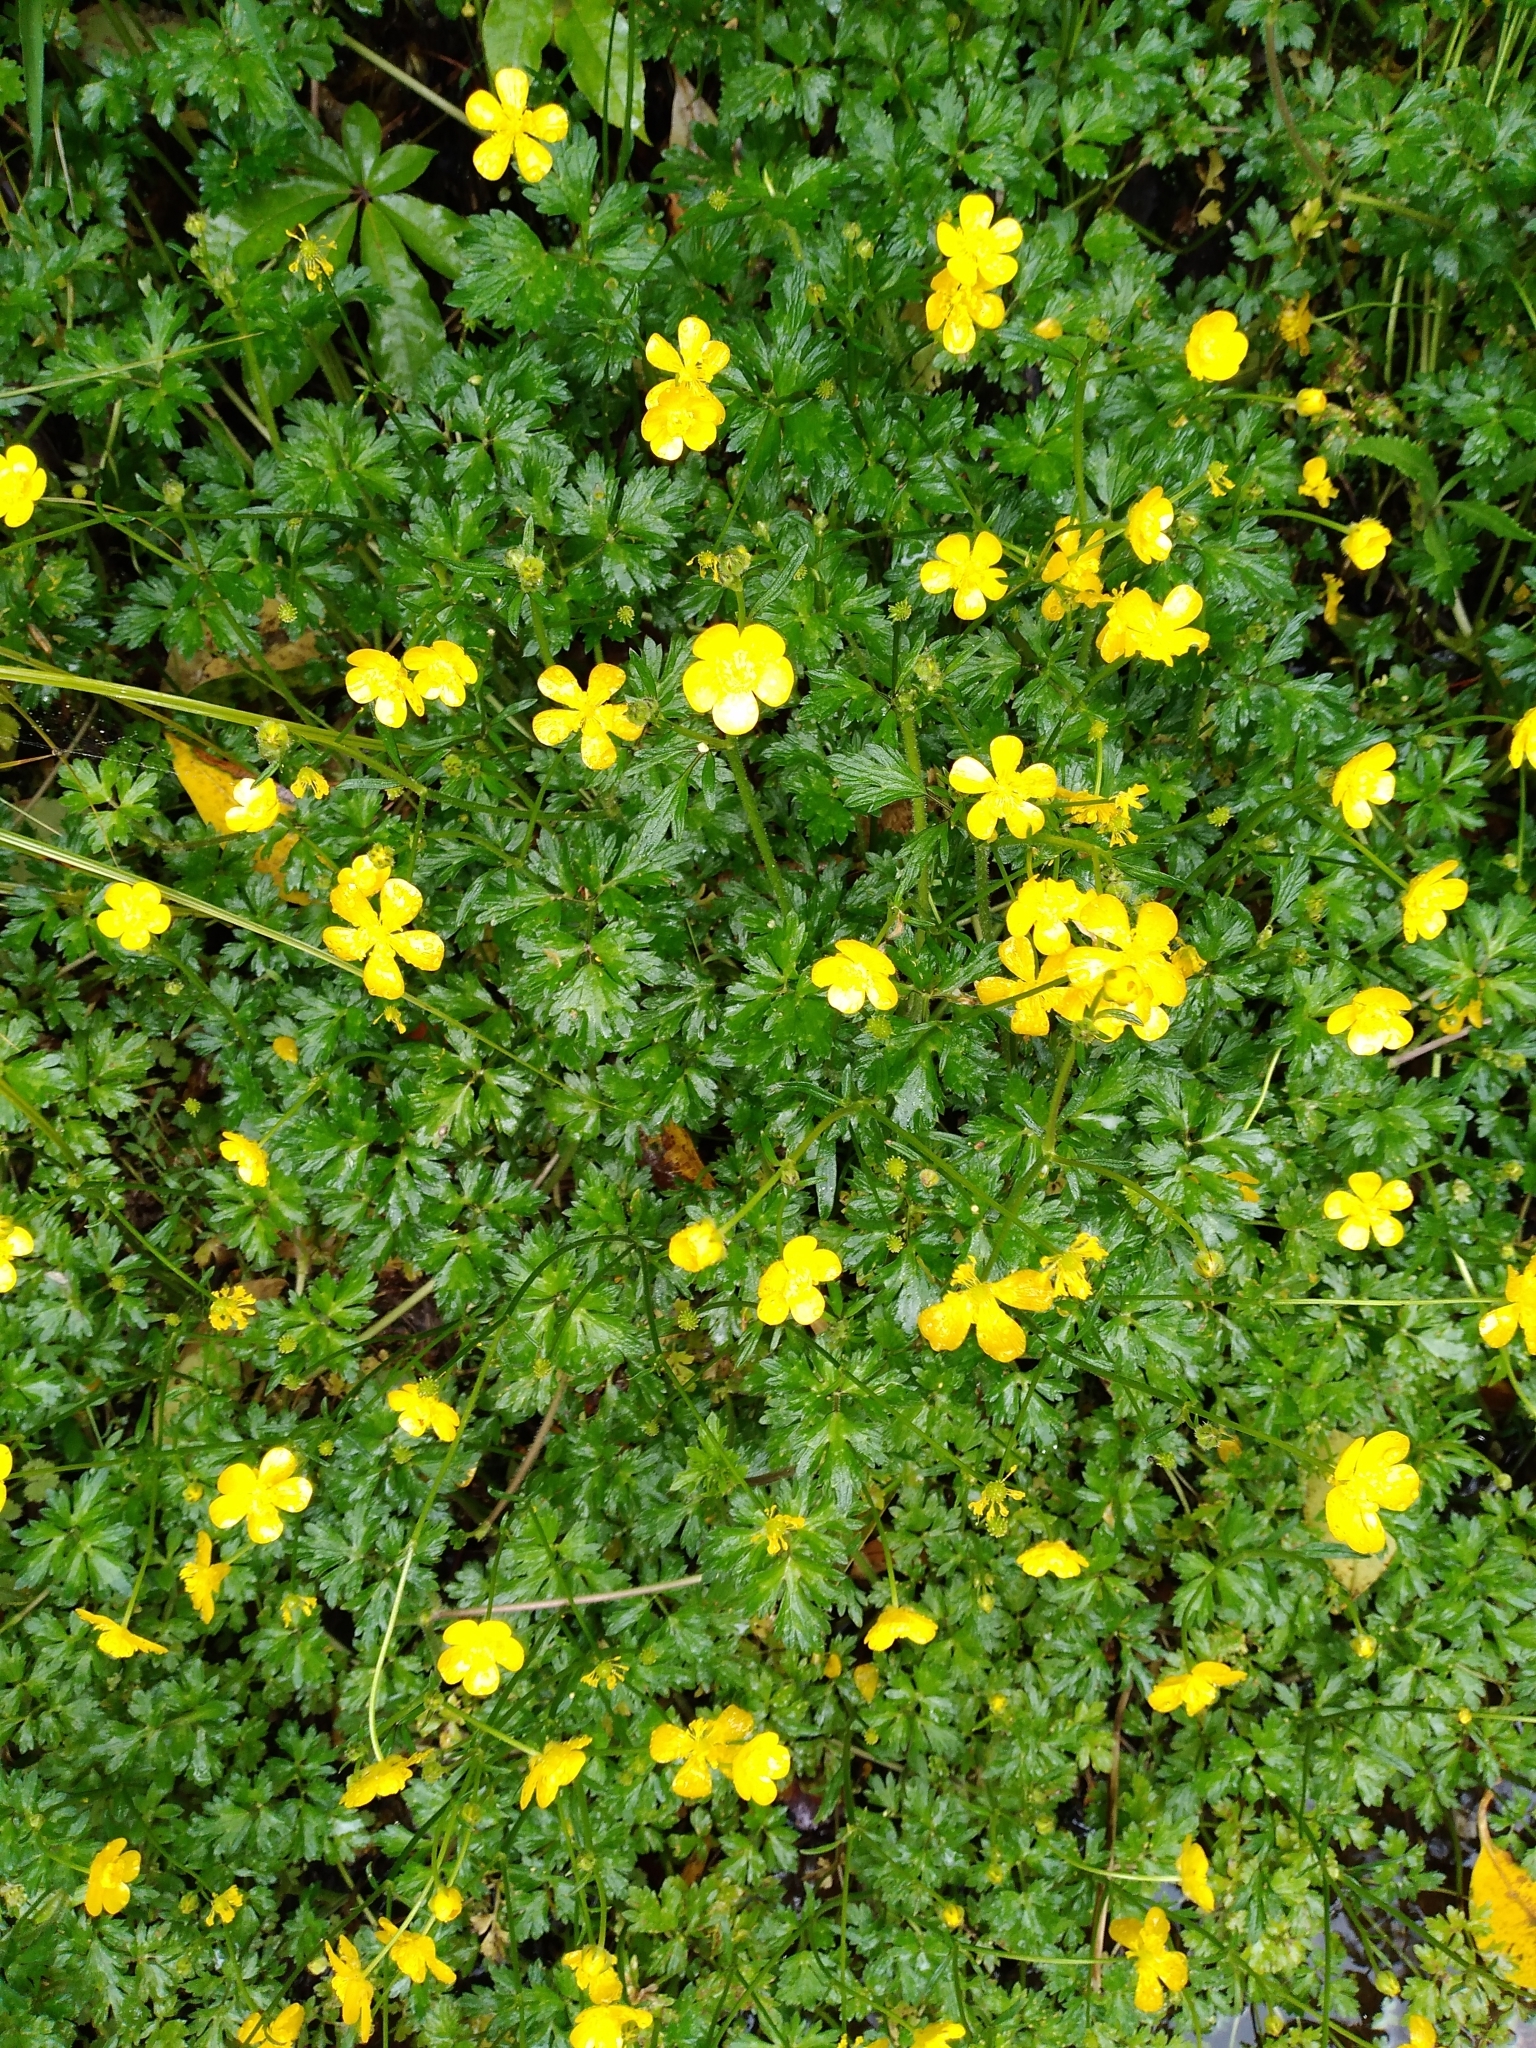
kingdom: Plantae
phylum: Tracheophyta
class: Magnoliopsida
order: Ranunculales
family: Ranunculaceae
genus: Ranunculus
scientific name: Ranunculus repens
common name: Creeping buttercup
